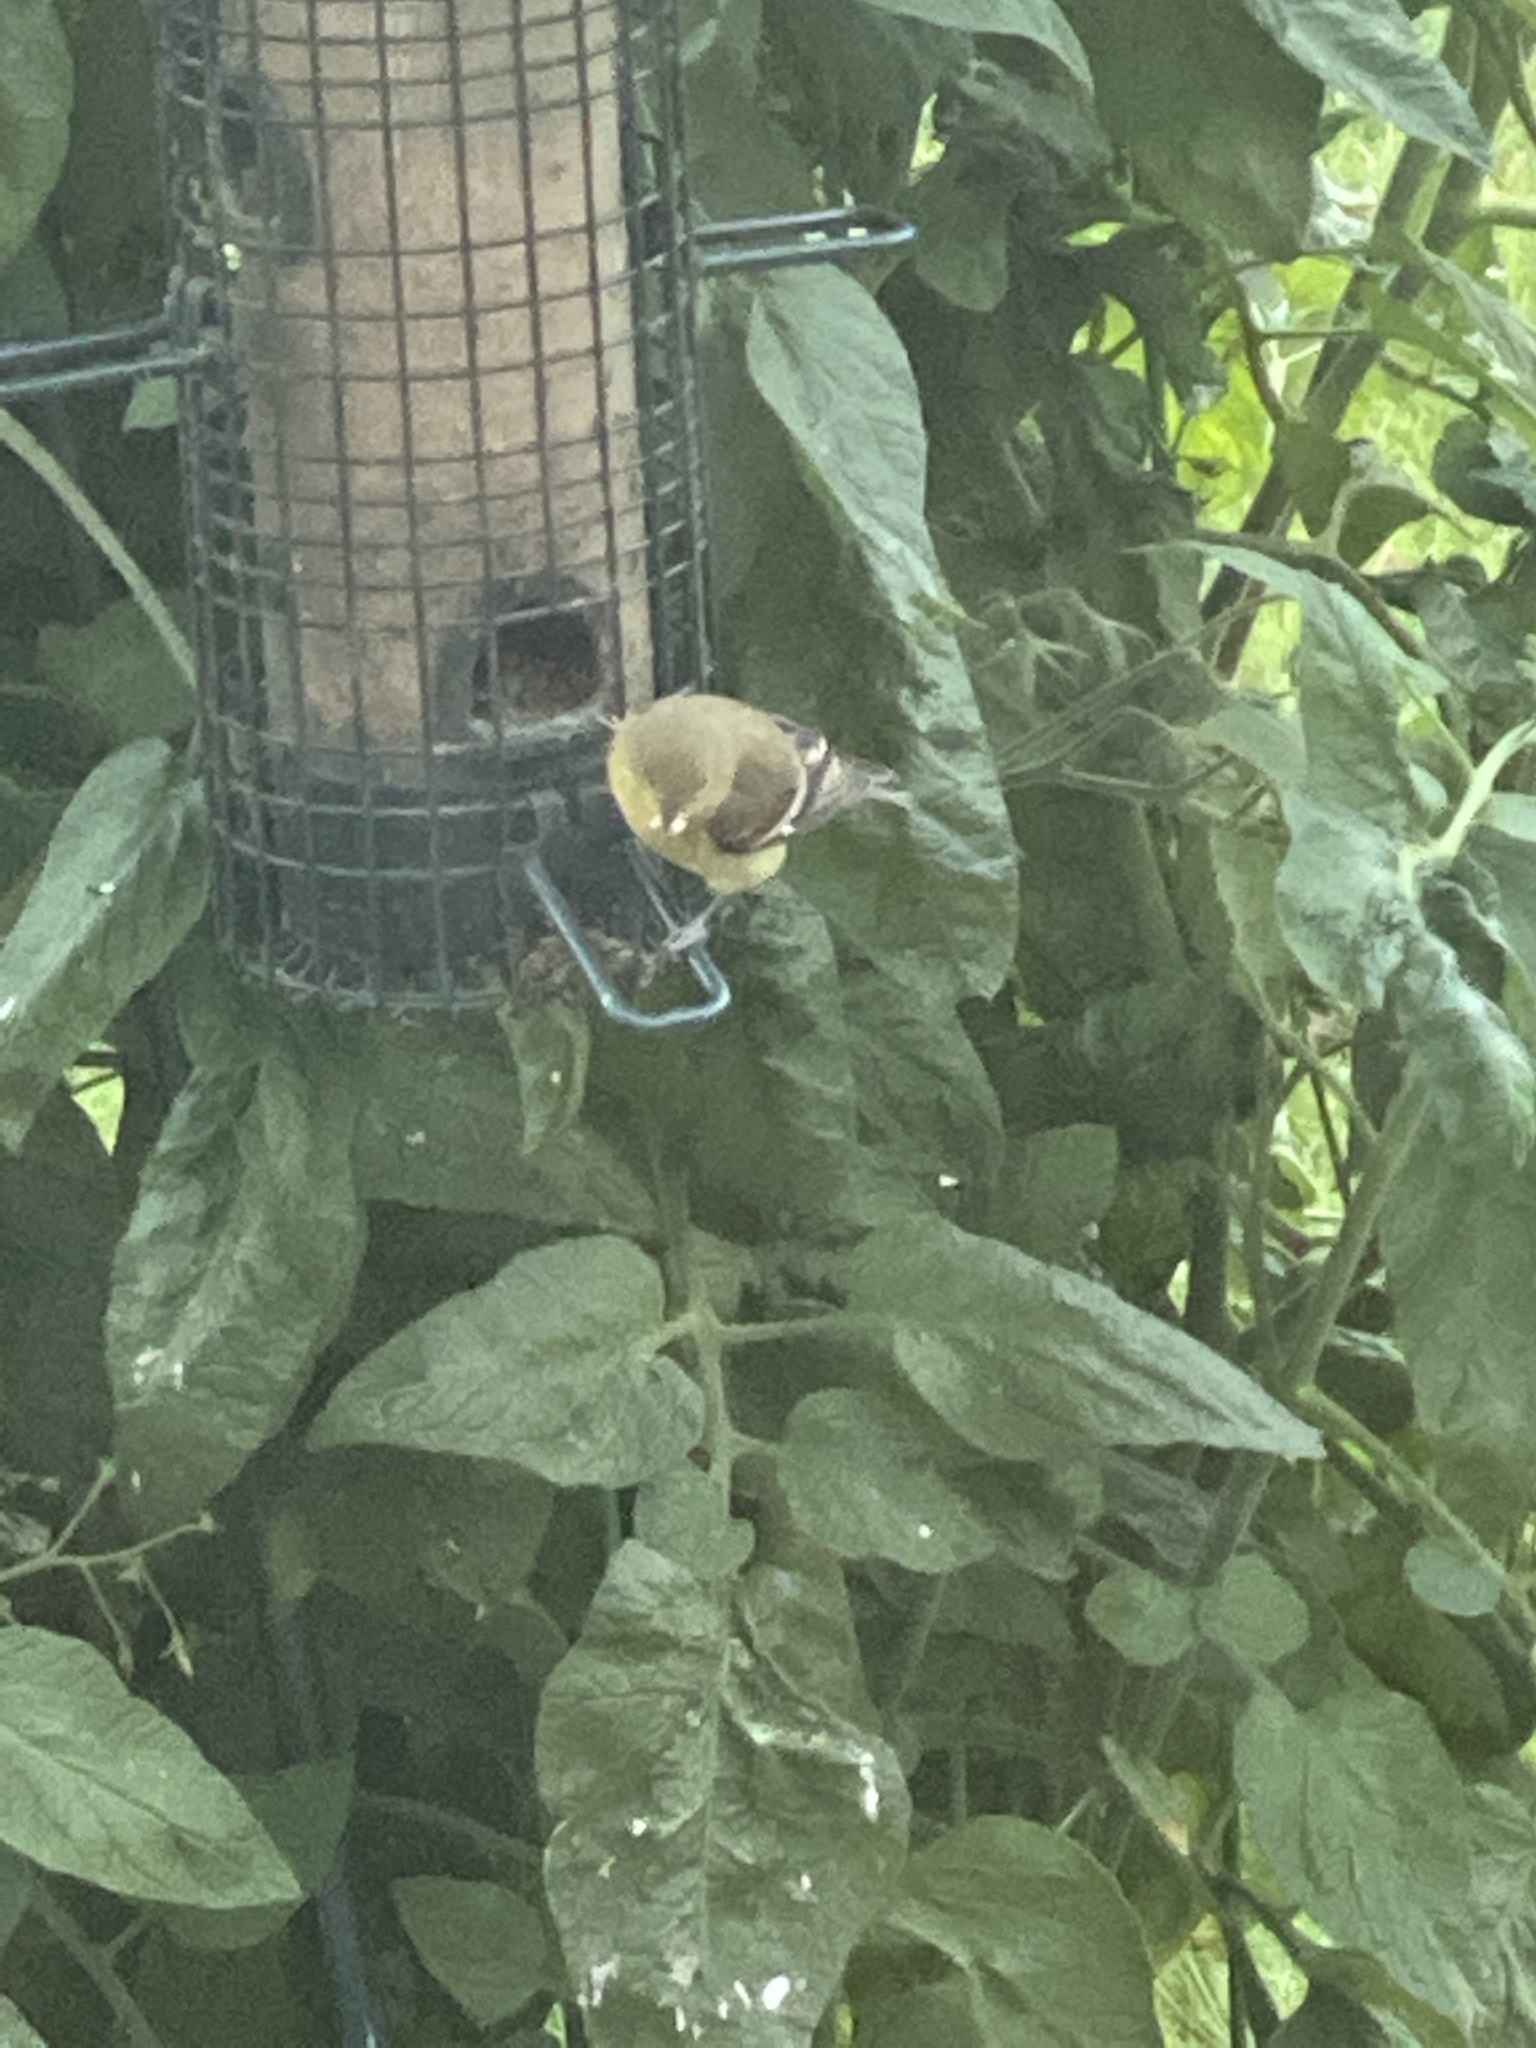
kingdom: Animalia
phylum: Chordata
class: Aves
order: Passeriformes
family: Fringillidae
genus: Spinus
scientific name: Spinus tristis
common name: American goldfinch
